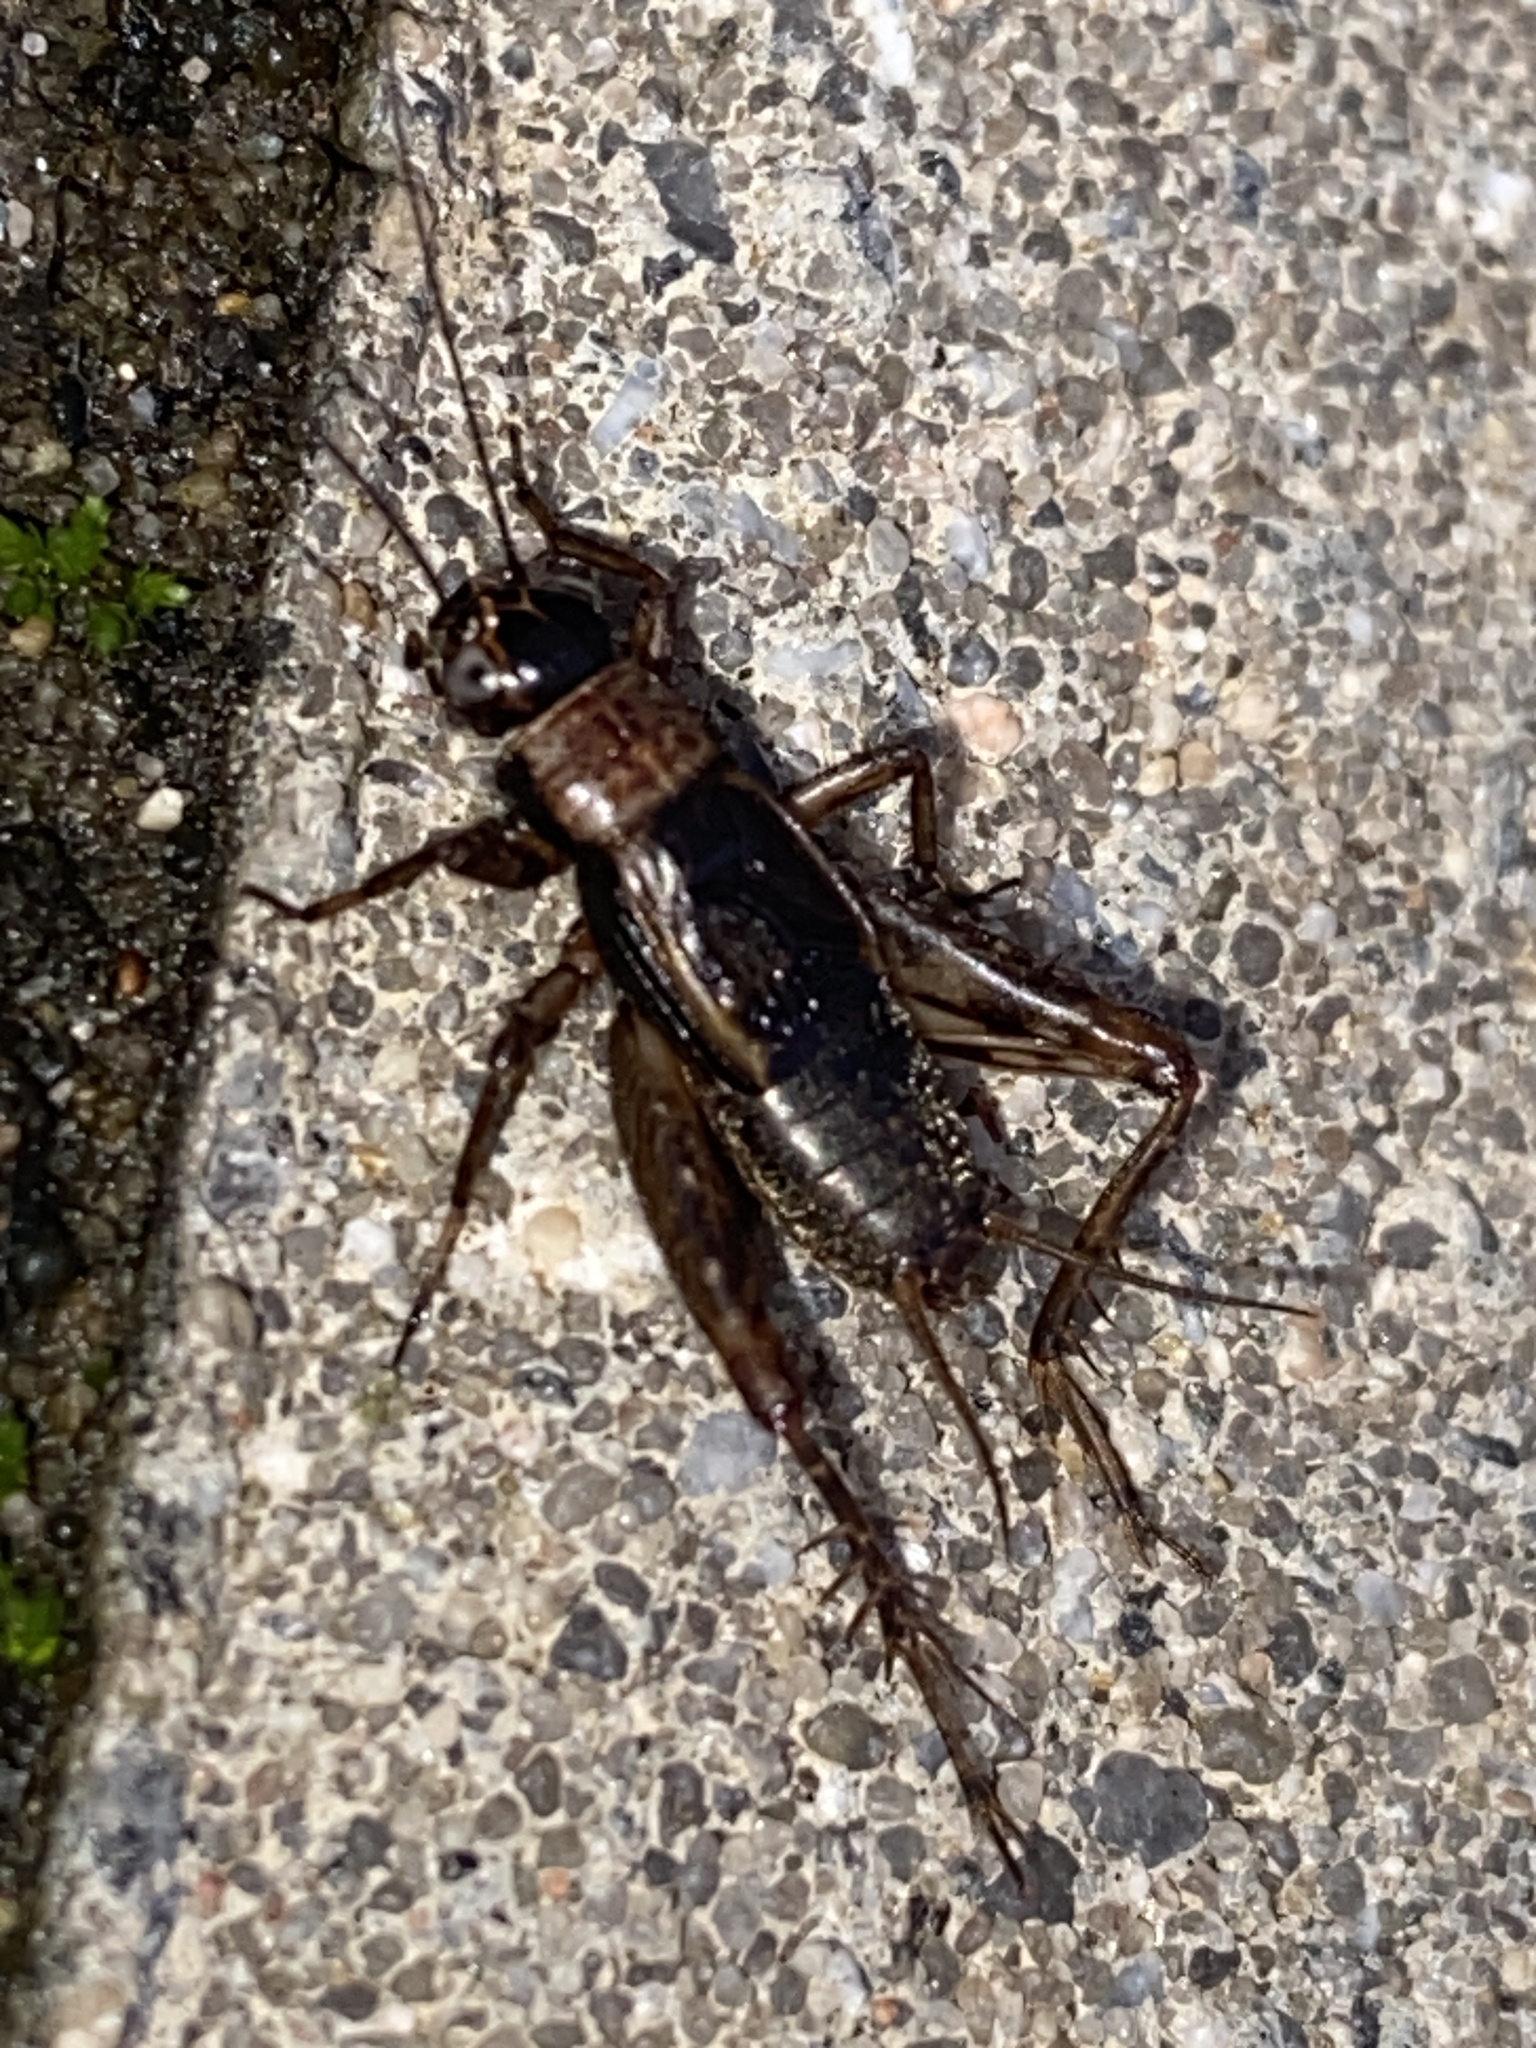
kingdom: Animalia
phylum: Arthropoda
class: Insecta
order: Orthoptera
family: Trigonidiidae
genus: Nemobius
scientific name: Nemobius sylvestris
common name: Wood-cricket
